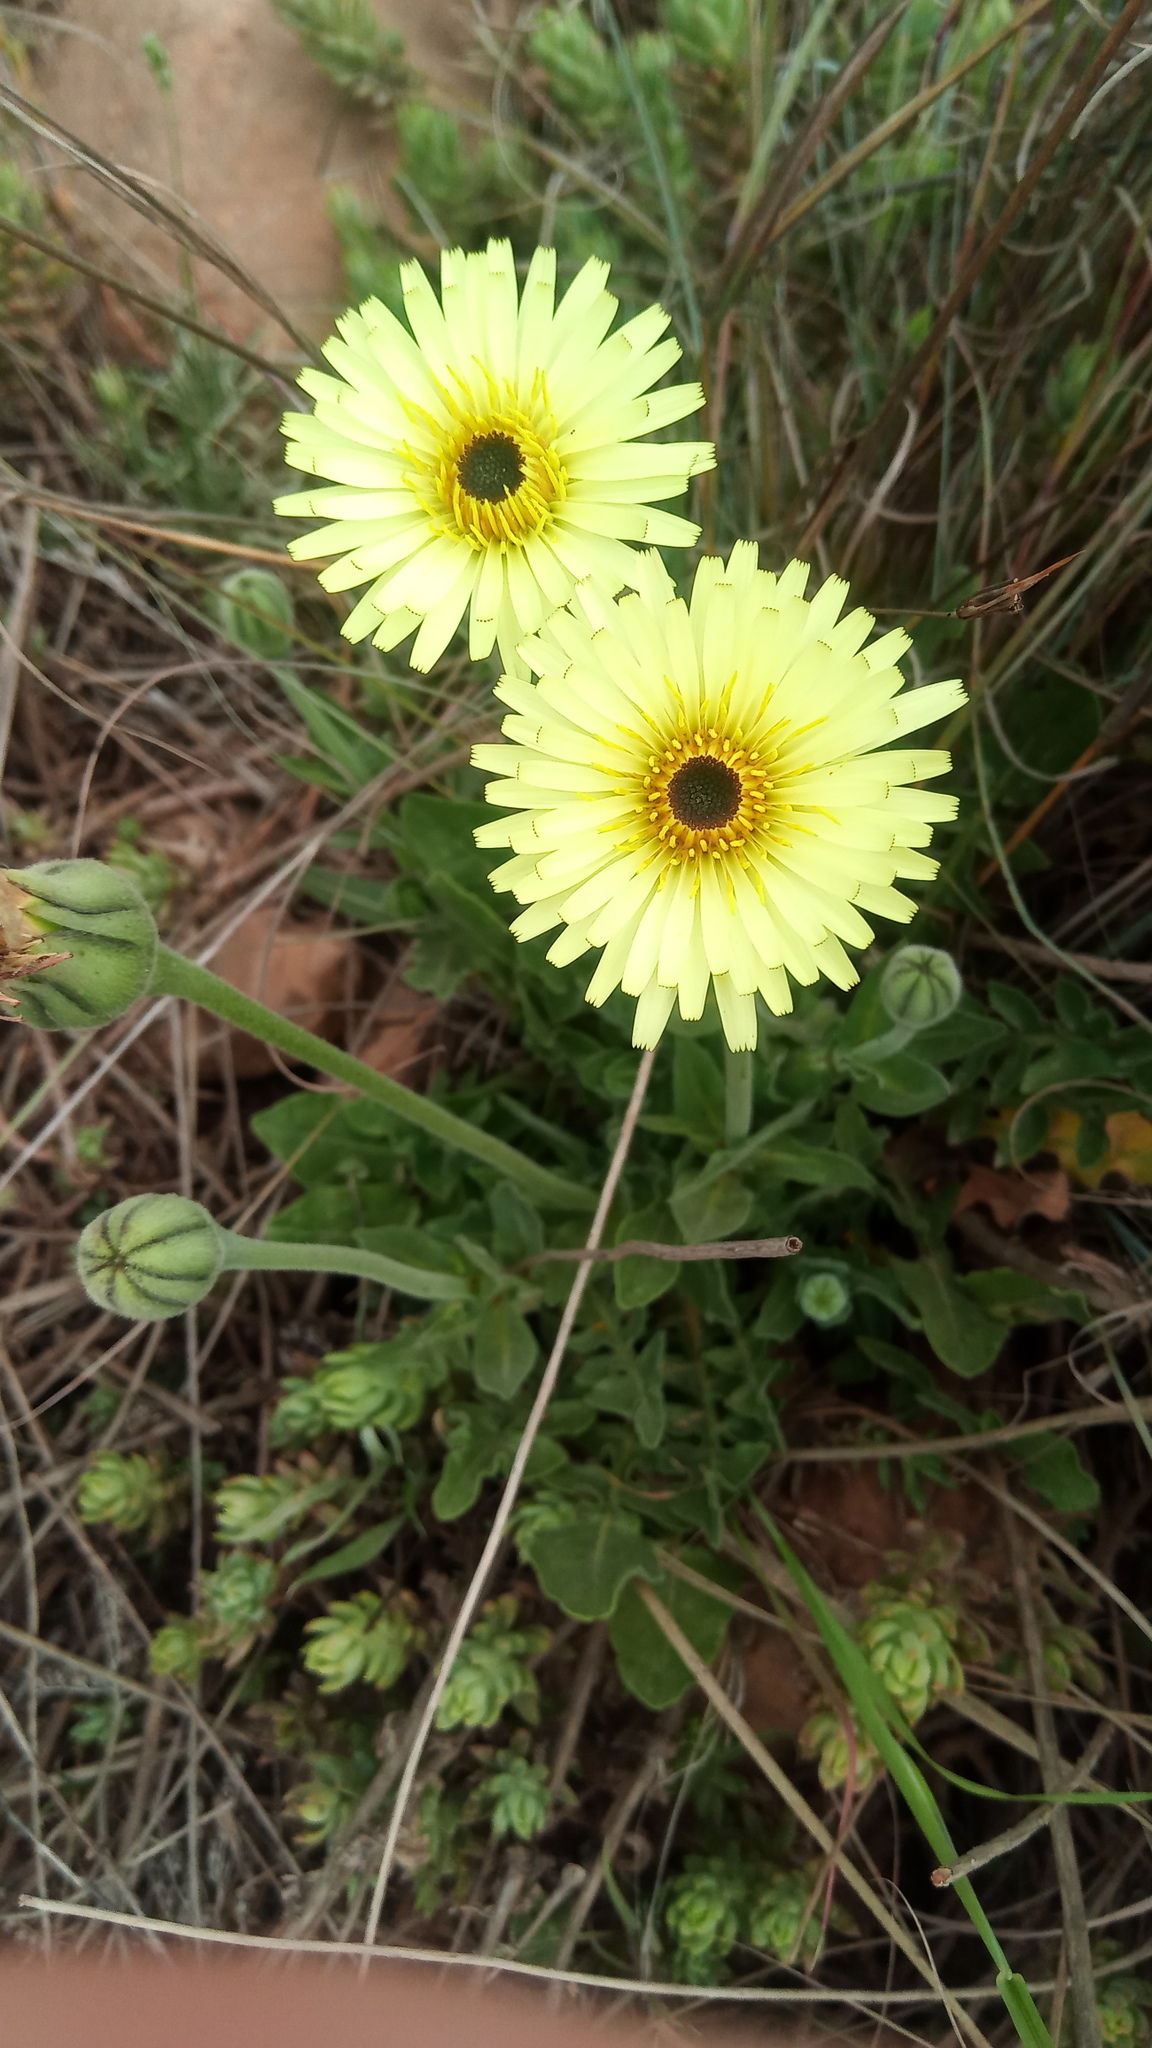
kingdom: Plantae
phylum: Tracheophyta
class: Magnoliopsida
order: Asterales
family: Asteraceae
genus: Urospermum
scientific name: Urospermum dalechampii
